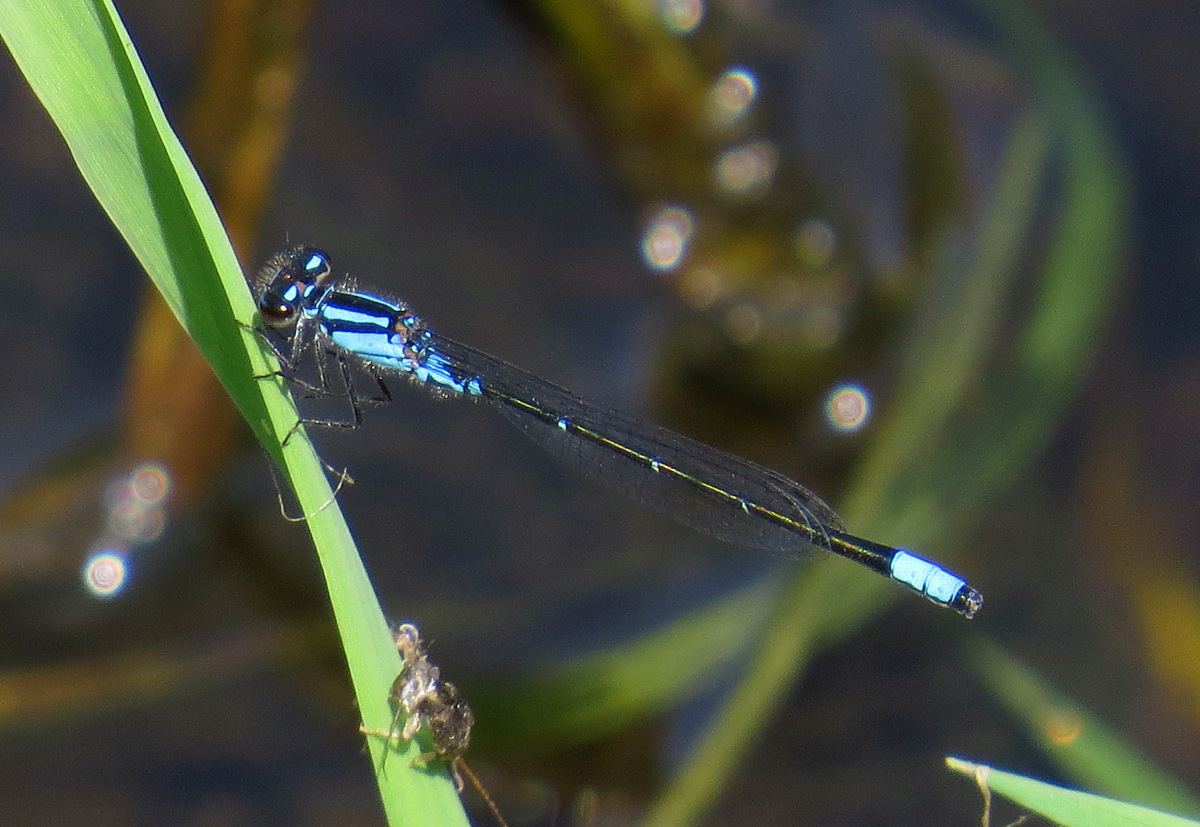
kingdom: Animalia
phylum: Arthropoda
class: Insecta
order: Odonata
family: Coenagrionidae
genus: Enallagma
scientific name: Enallagma geminatum
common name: Skimming bluet
